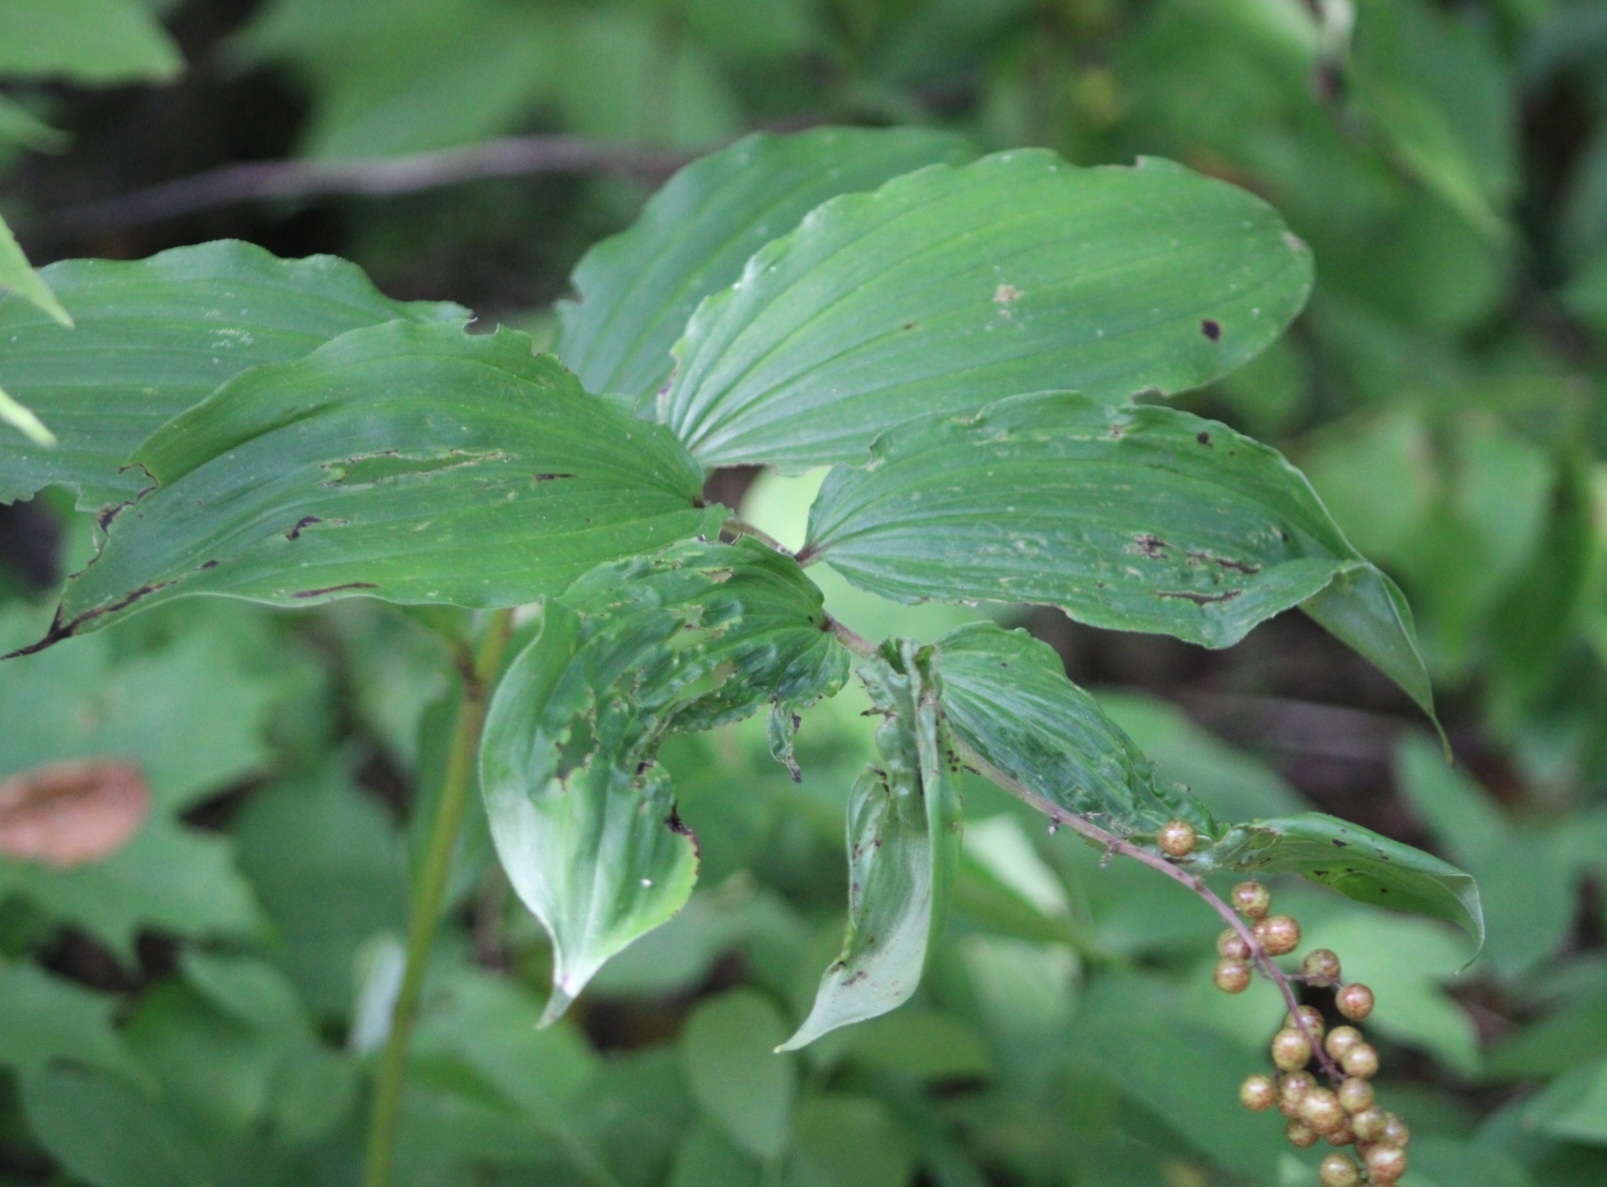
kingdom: Plantae
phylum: Tracheophyta
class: Liliopsida
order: Asparagales
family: Asparagaceae
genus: Maianthemum
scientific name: Maianthemum racemosum
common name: False spikenard
